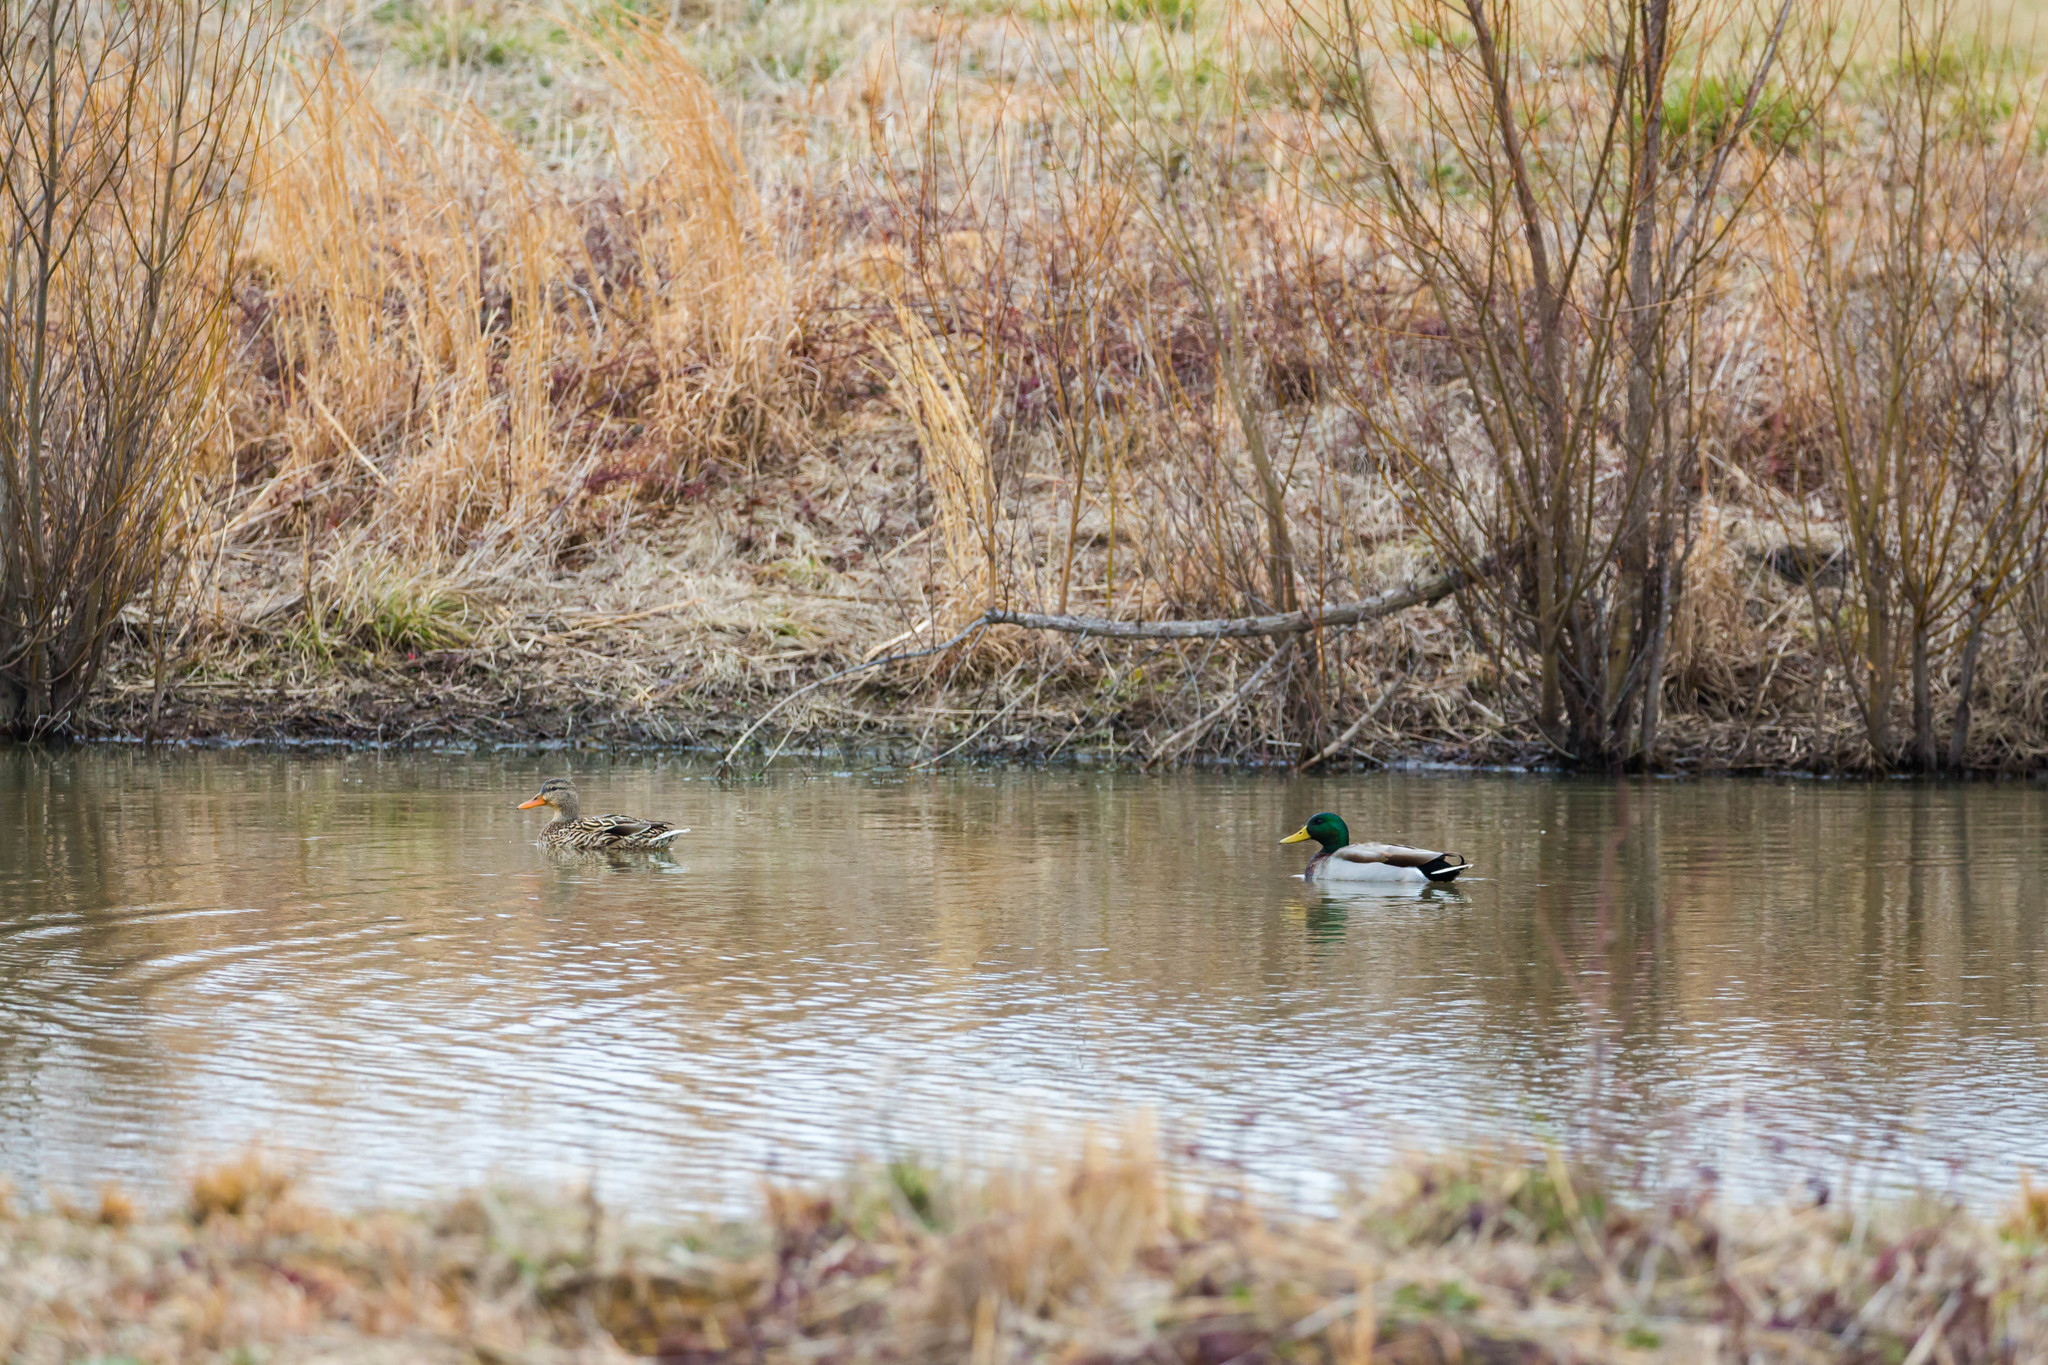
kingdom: Animalia
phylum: Chordata
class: Aves
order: Anseriformes
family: Anatidae
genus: Anas
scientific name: Anas platyrhynchos
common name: Mallard
